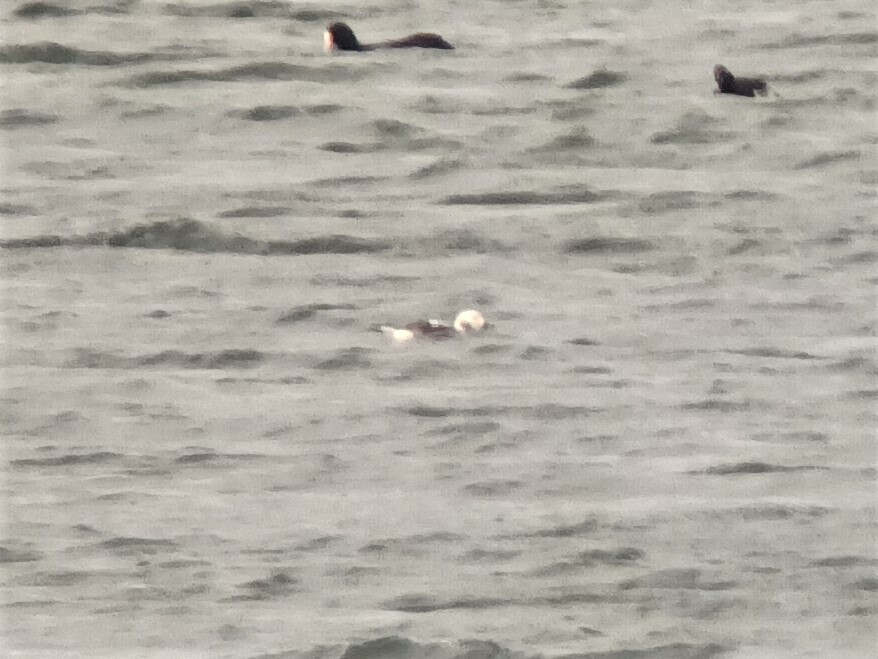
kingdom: Animalia
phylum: Chordata
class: Aves
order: Anseriformes
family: Anatidae
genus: Clangula
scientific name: Clangula hyemalis
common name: Long-tailed duck
